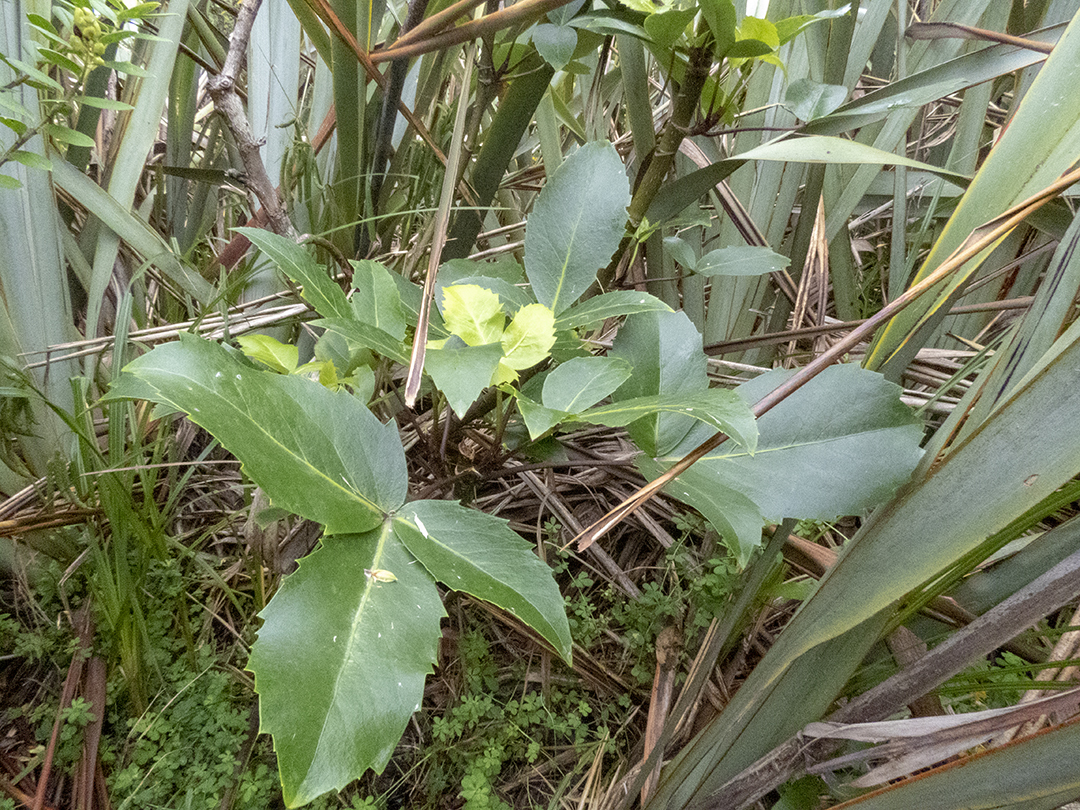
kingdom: Plantae
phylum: Tracheophyta
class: Magnoliopsida
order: Apiales
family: Araliaceae
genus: Neopanax
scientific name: Neopanax colensoi
